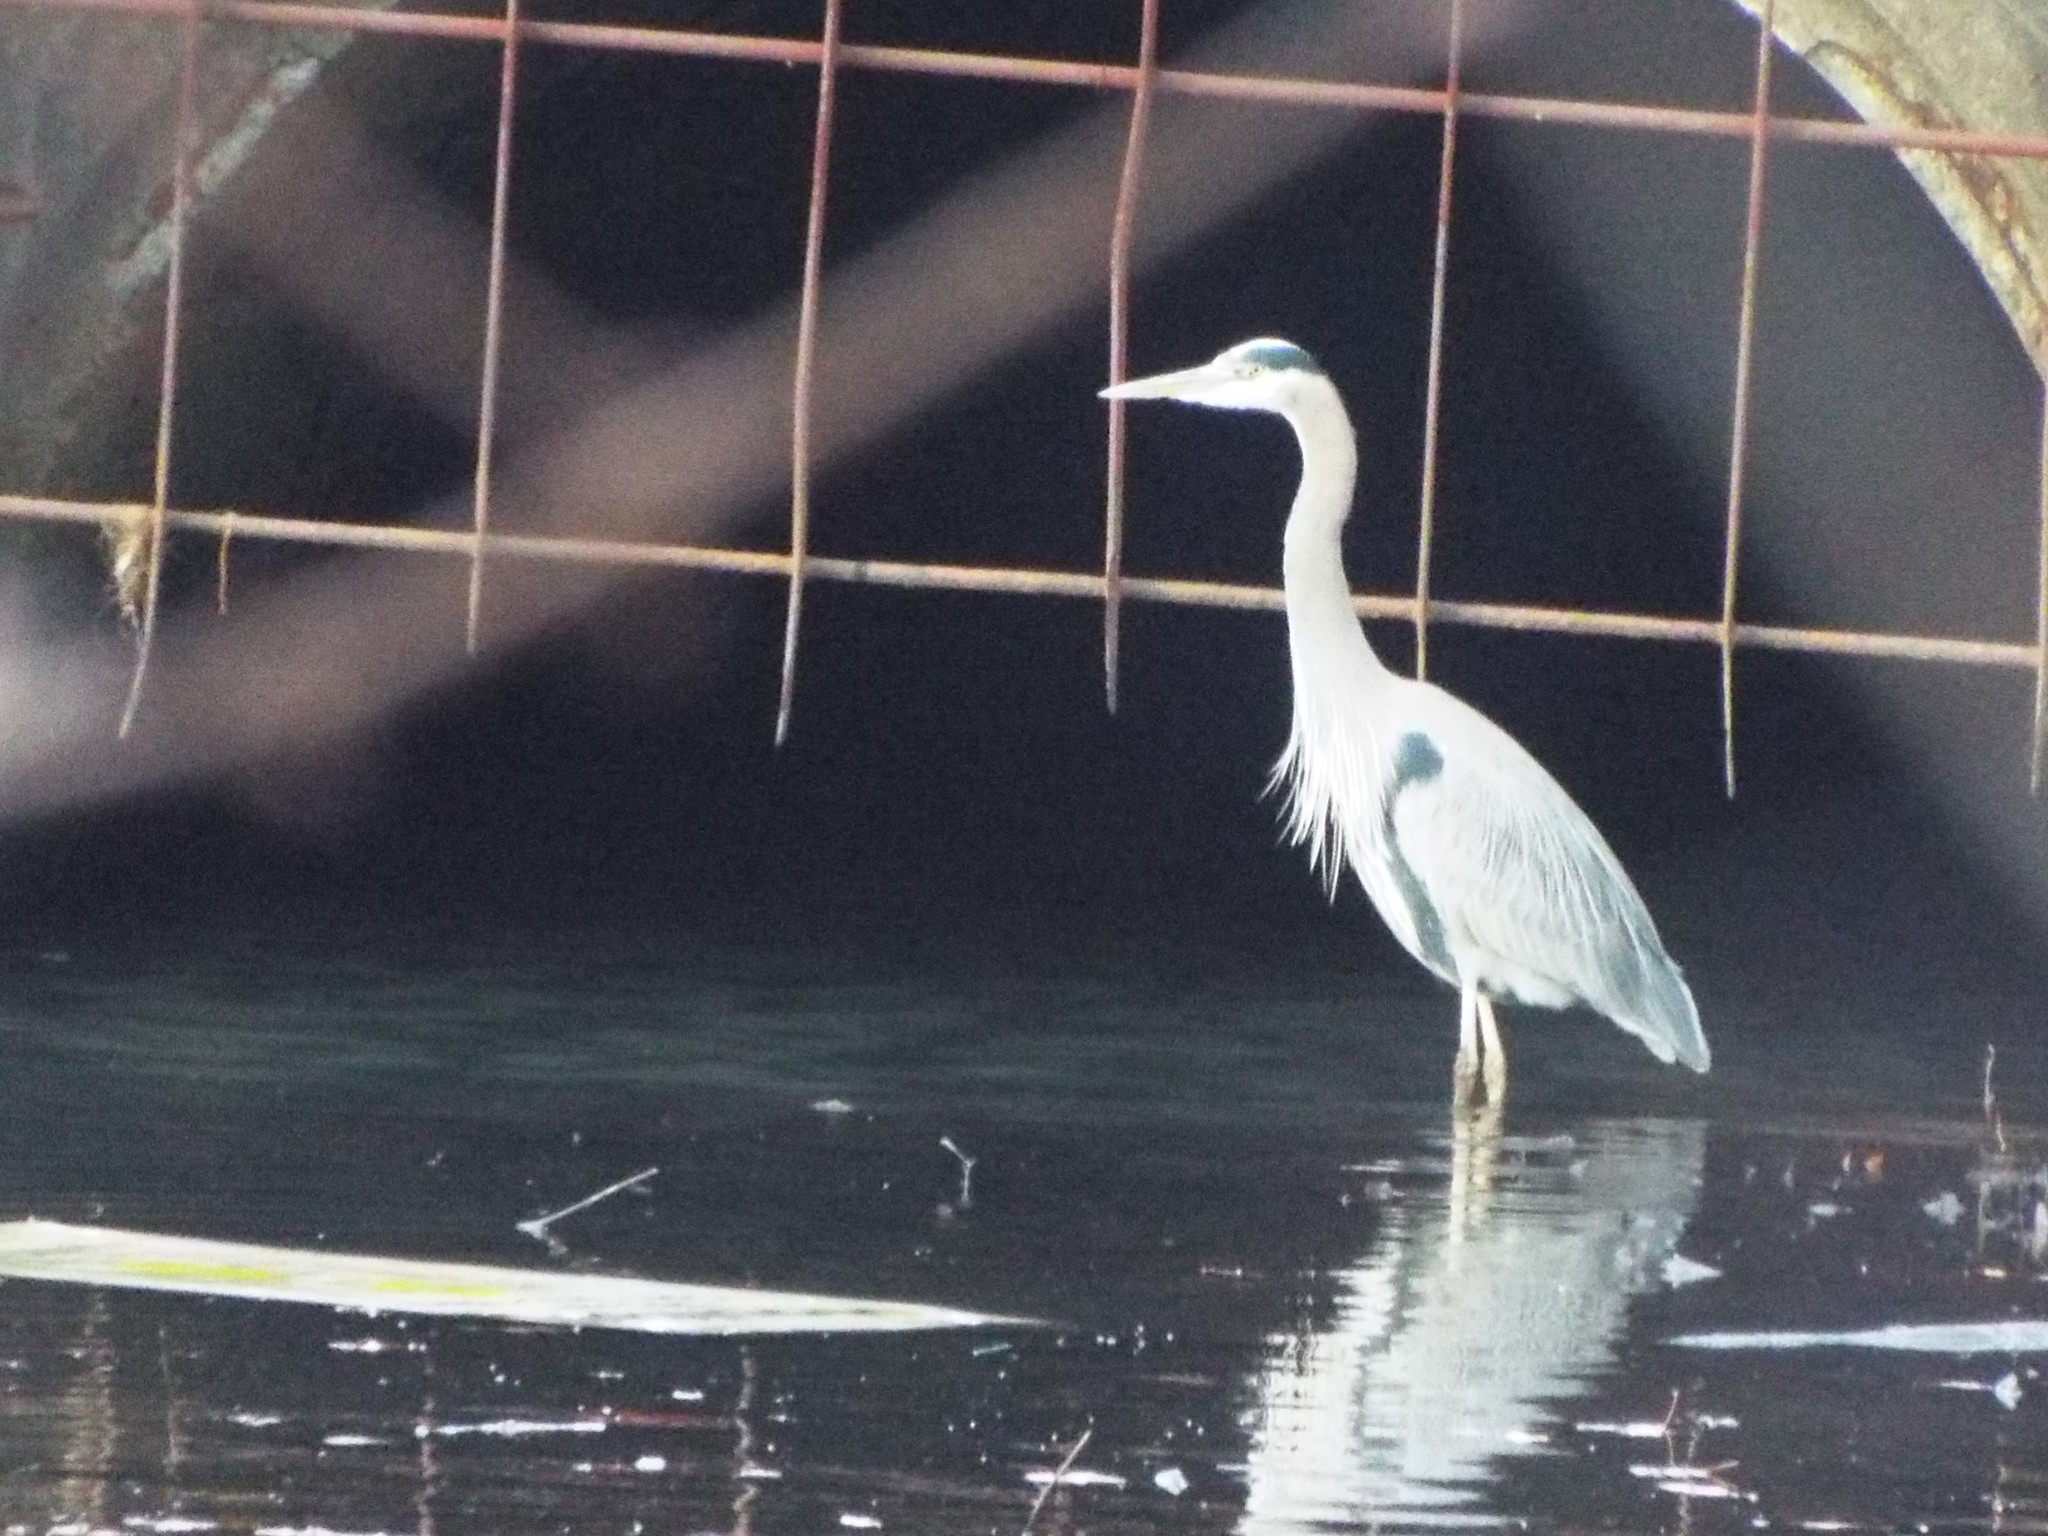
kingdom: Animalia
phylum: Chordata
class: Aves
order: Pelecaniformes
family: Ardeidae
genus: Ardea
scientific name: Ardea herodias
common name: Great blue heron
